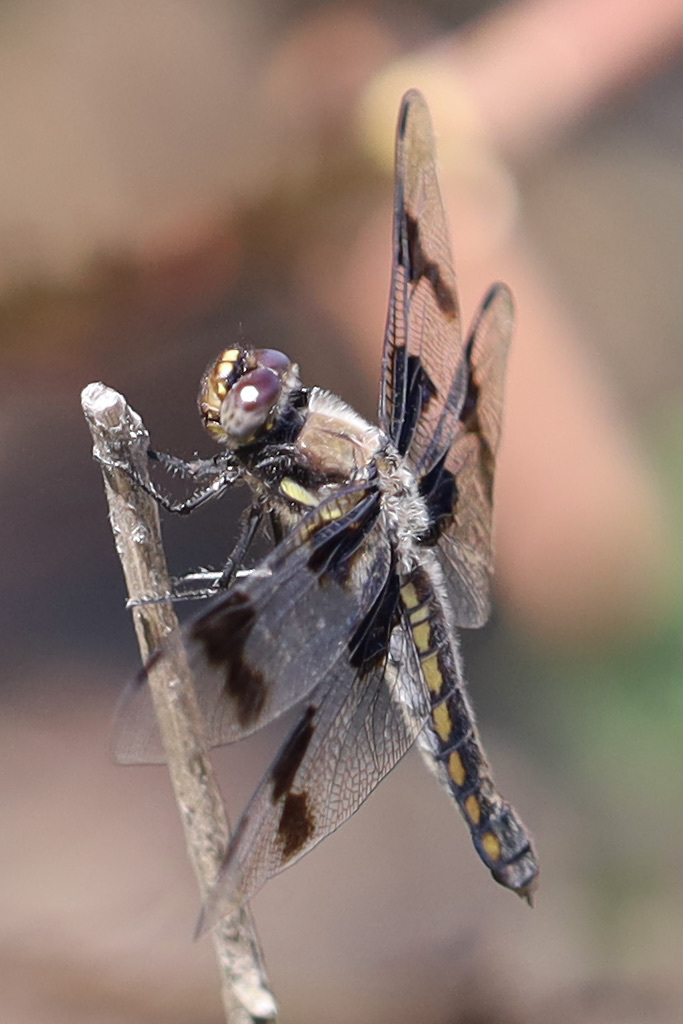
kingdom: Animalia
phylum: Arthropoda
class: Insecta
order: Odonata
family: Libellulidae
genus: Libellula
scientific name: Libellula forensis
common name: Eight-spotted skimmer
